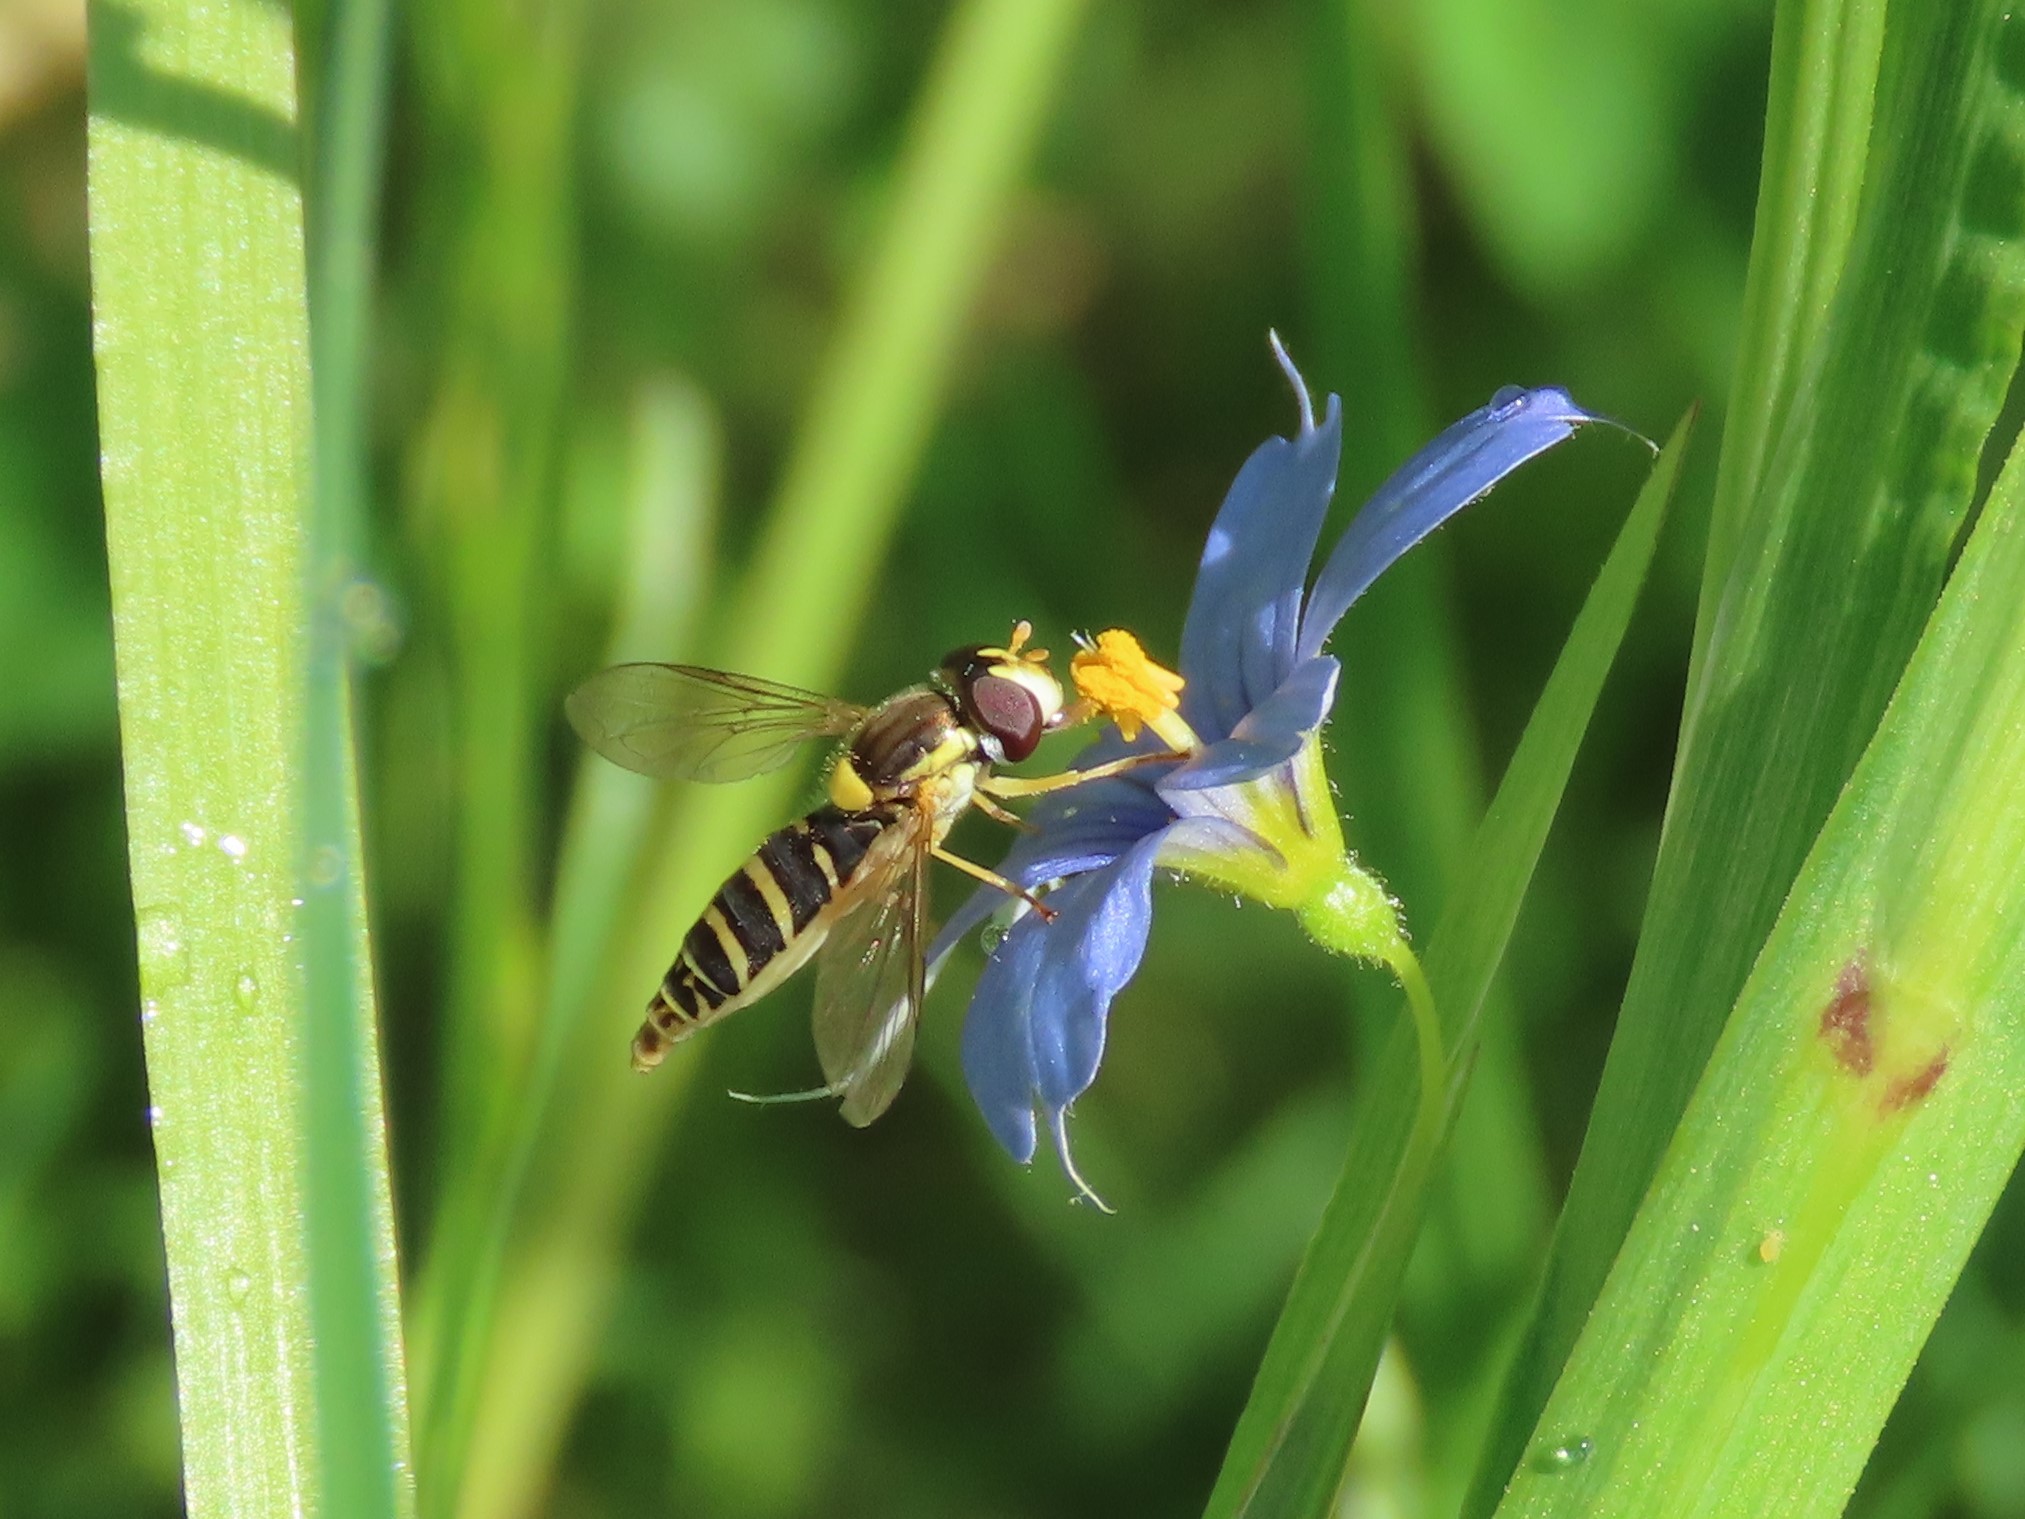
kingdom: Animalia
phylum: Arthropoda
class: Insecta
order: Diptera
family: Syrphidae
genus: Sphaerophoria
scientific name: Sphaerophoria
